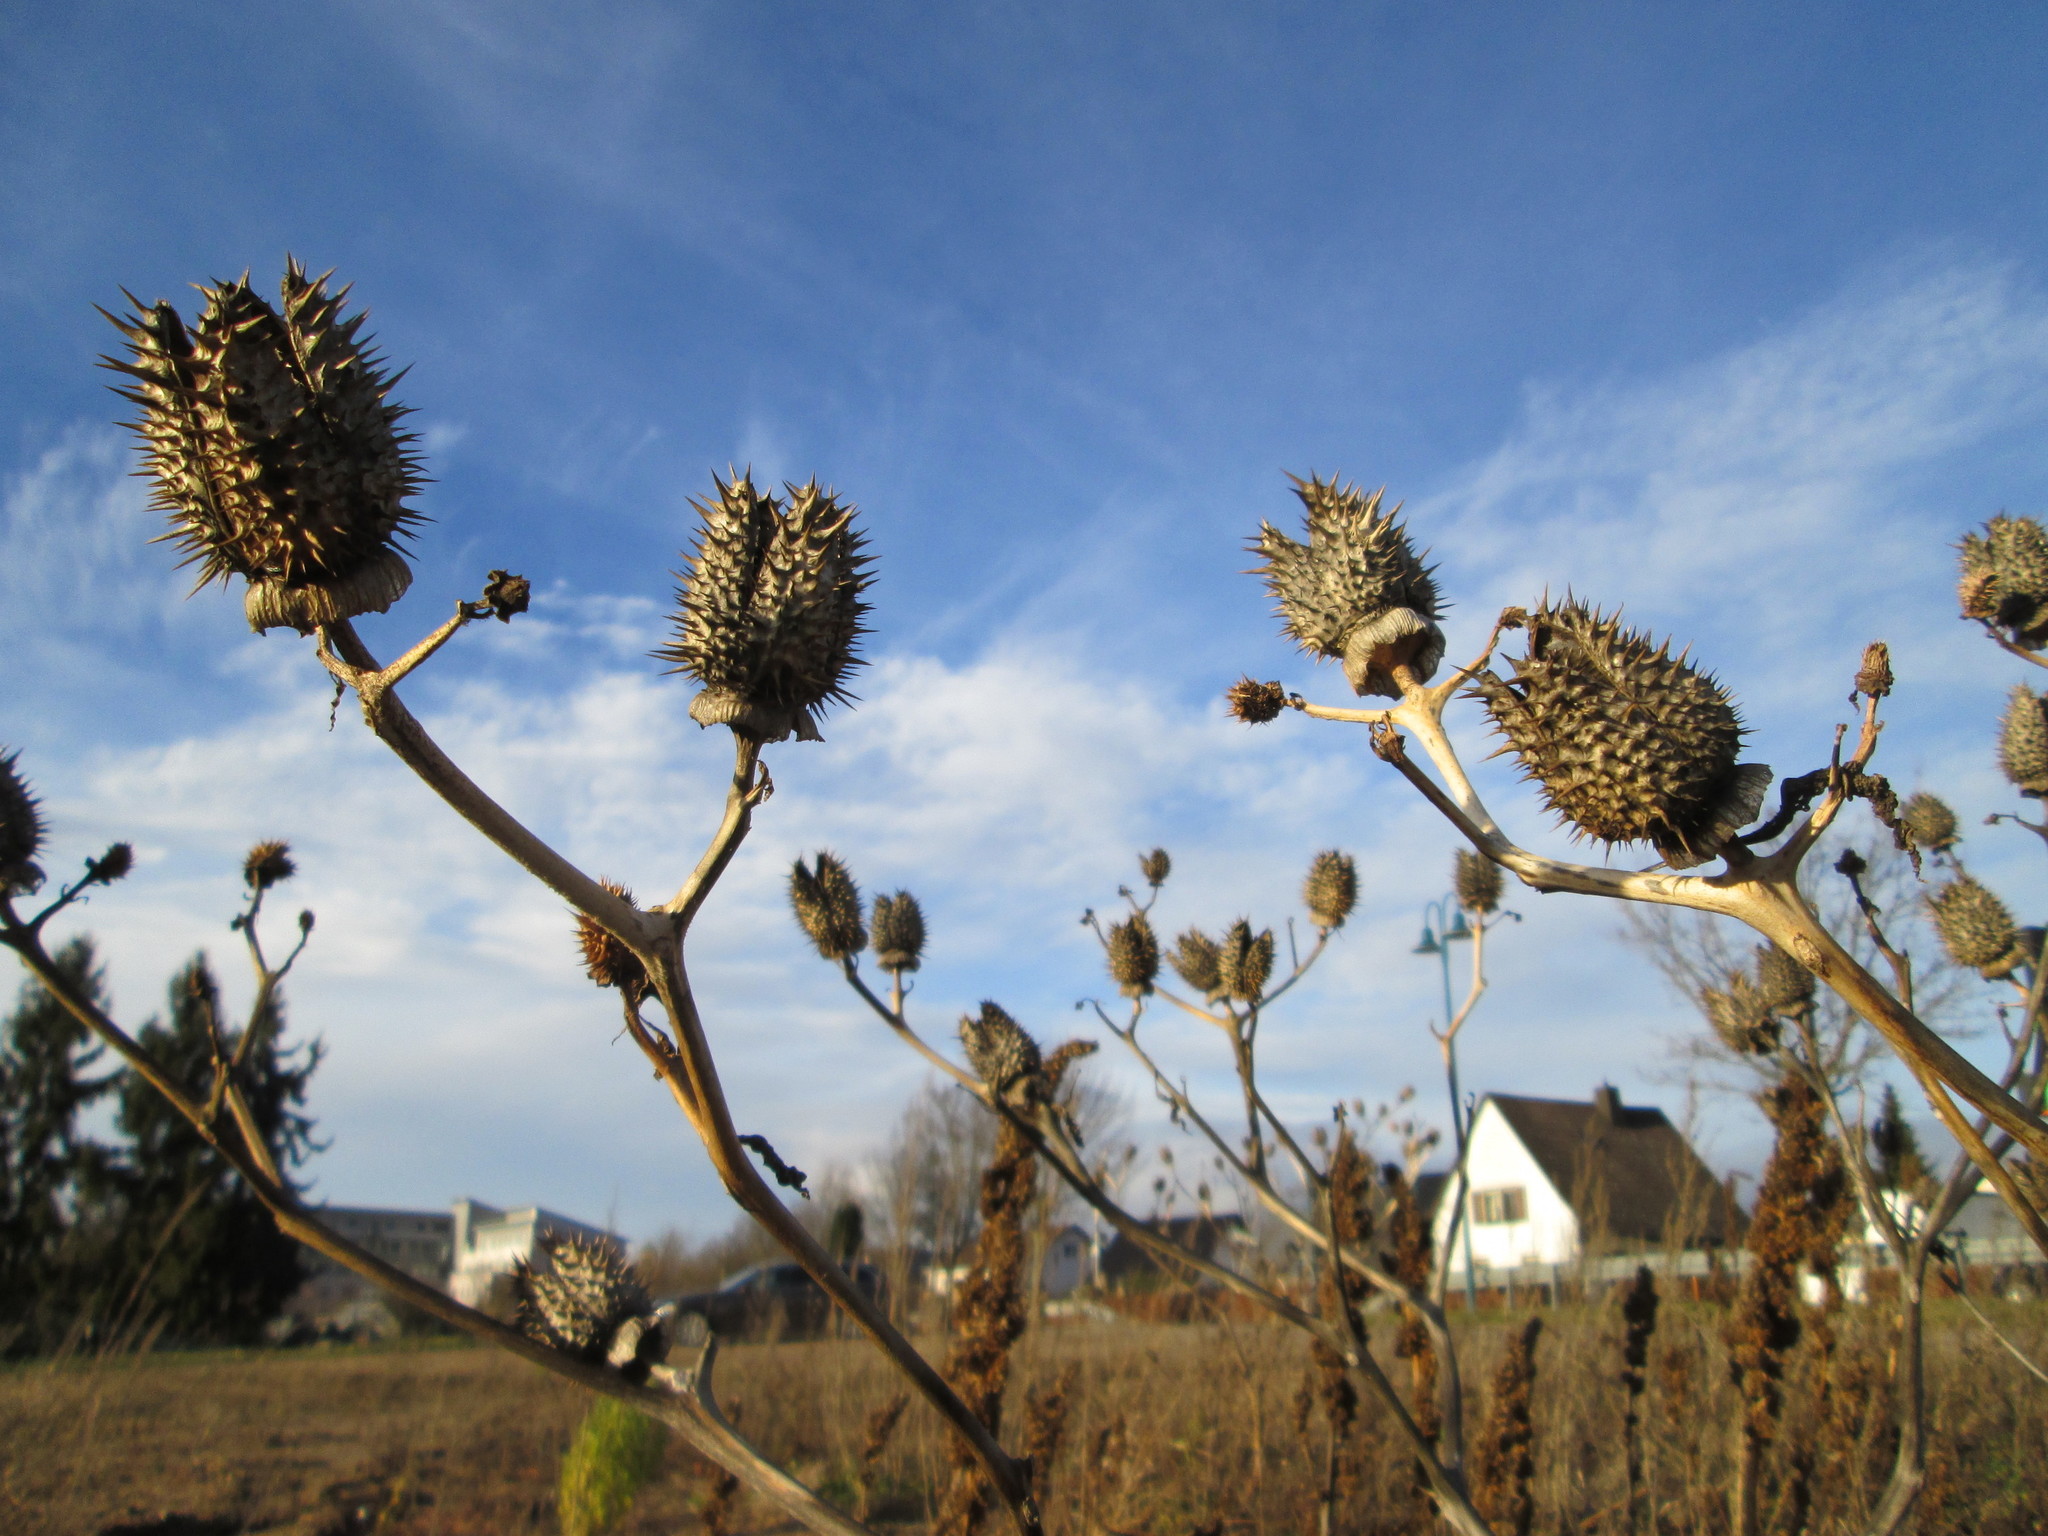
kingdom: Plantae
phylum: Tracheophyta
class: Magnoliopsida
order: Solanales
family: Solanaceae
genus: Datura
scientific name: Datura stramonium
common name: Thorn-apple
